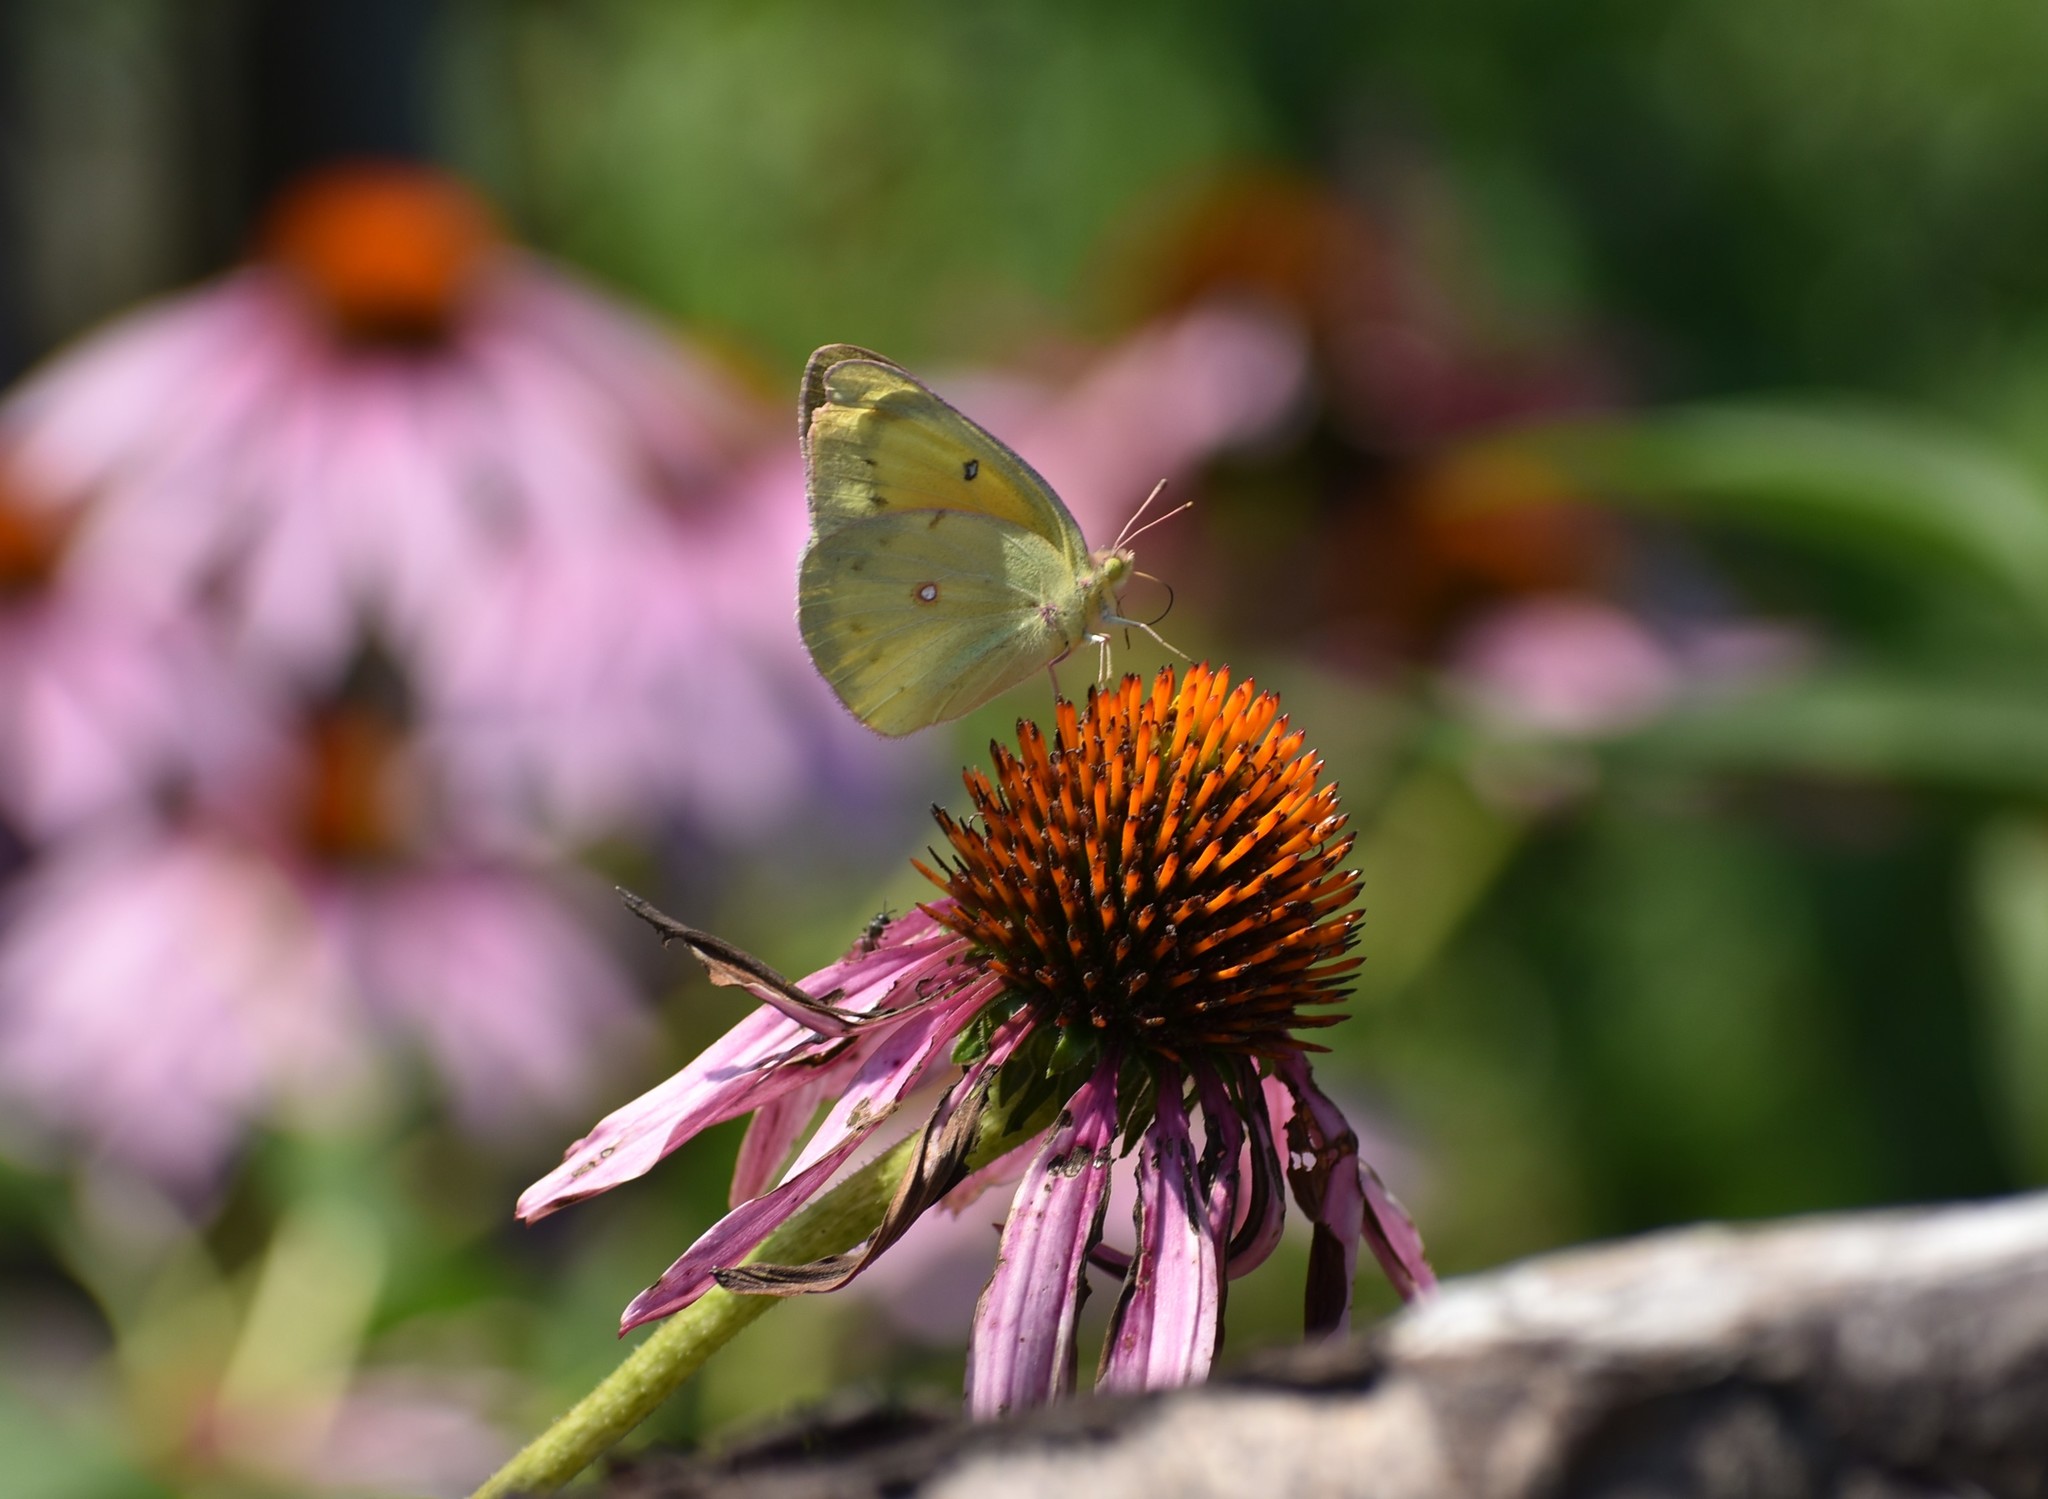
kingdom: Animalia
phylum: Arthropoda
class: Insecta
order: Lepidoptera
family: Pieridae
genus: Colias
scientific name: Colias eurytheme
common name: Alfalfa butterfly
